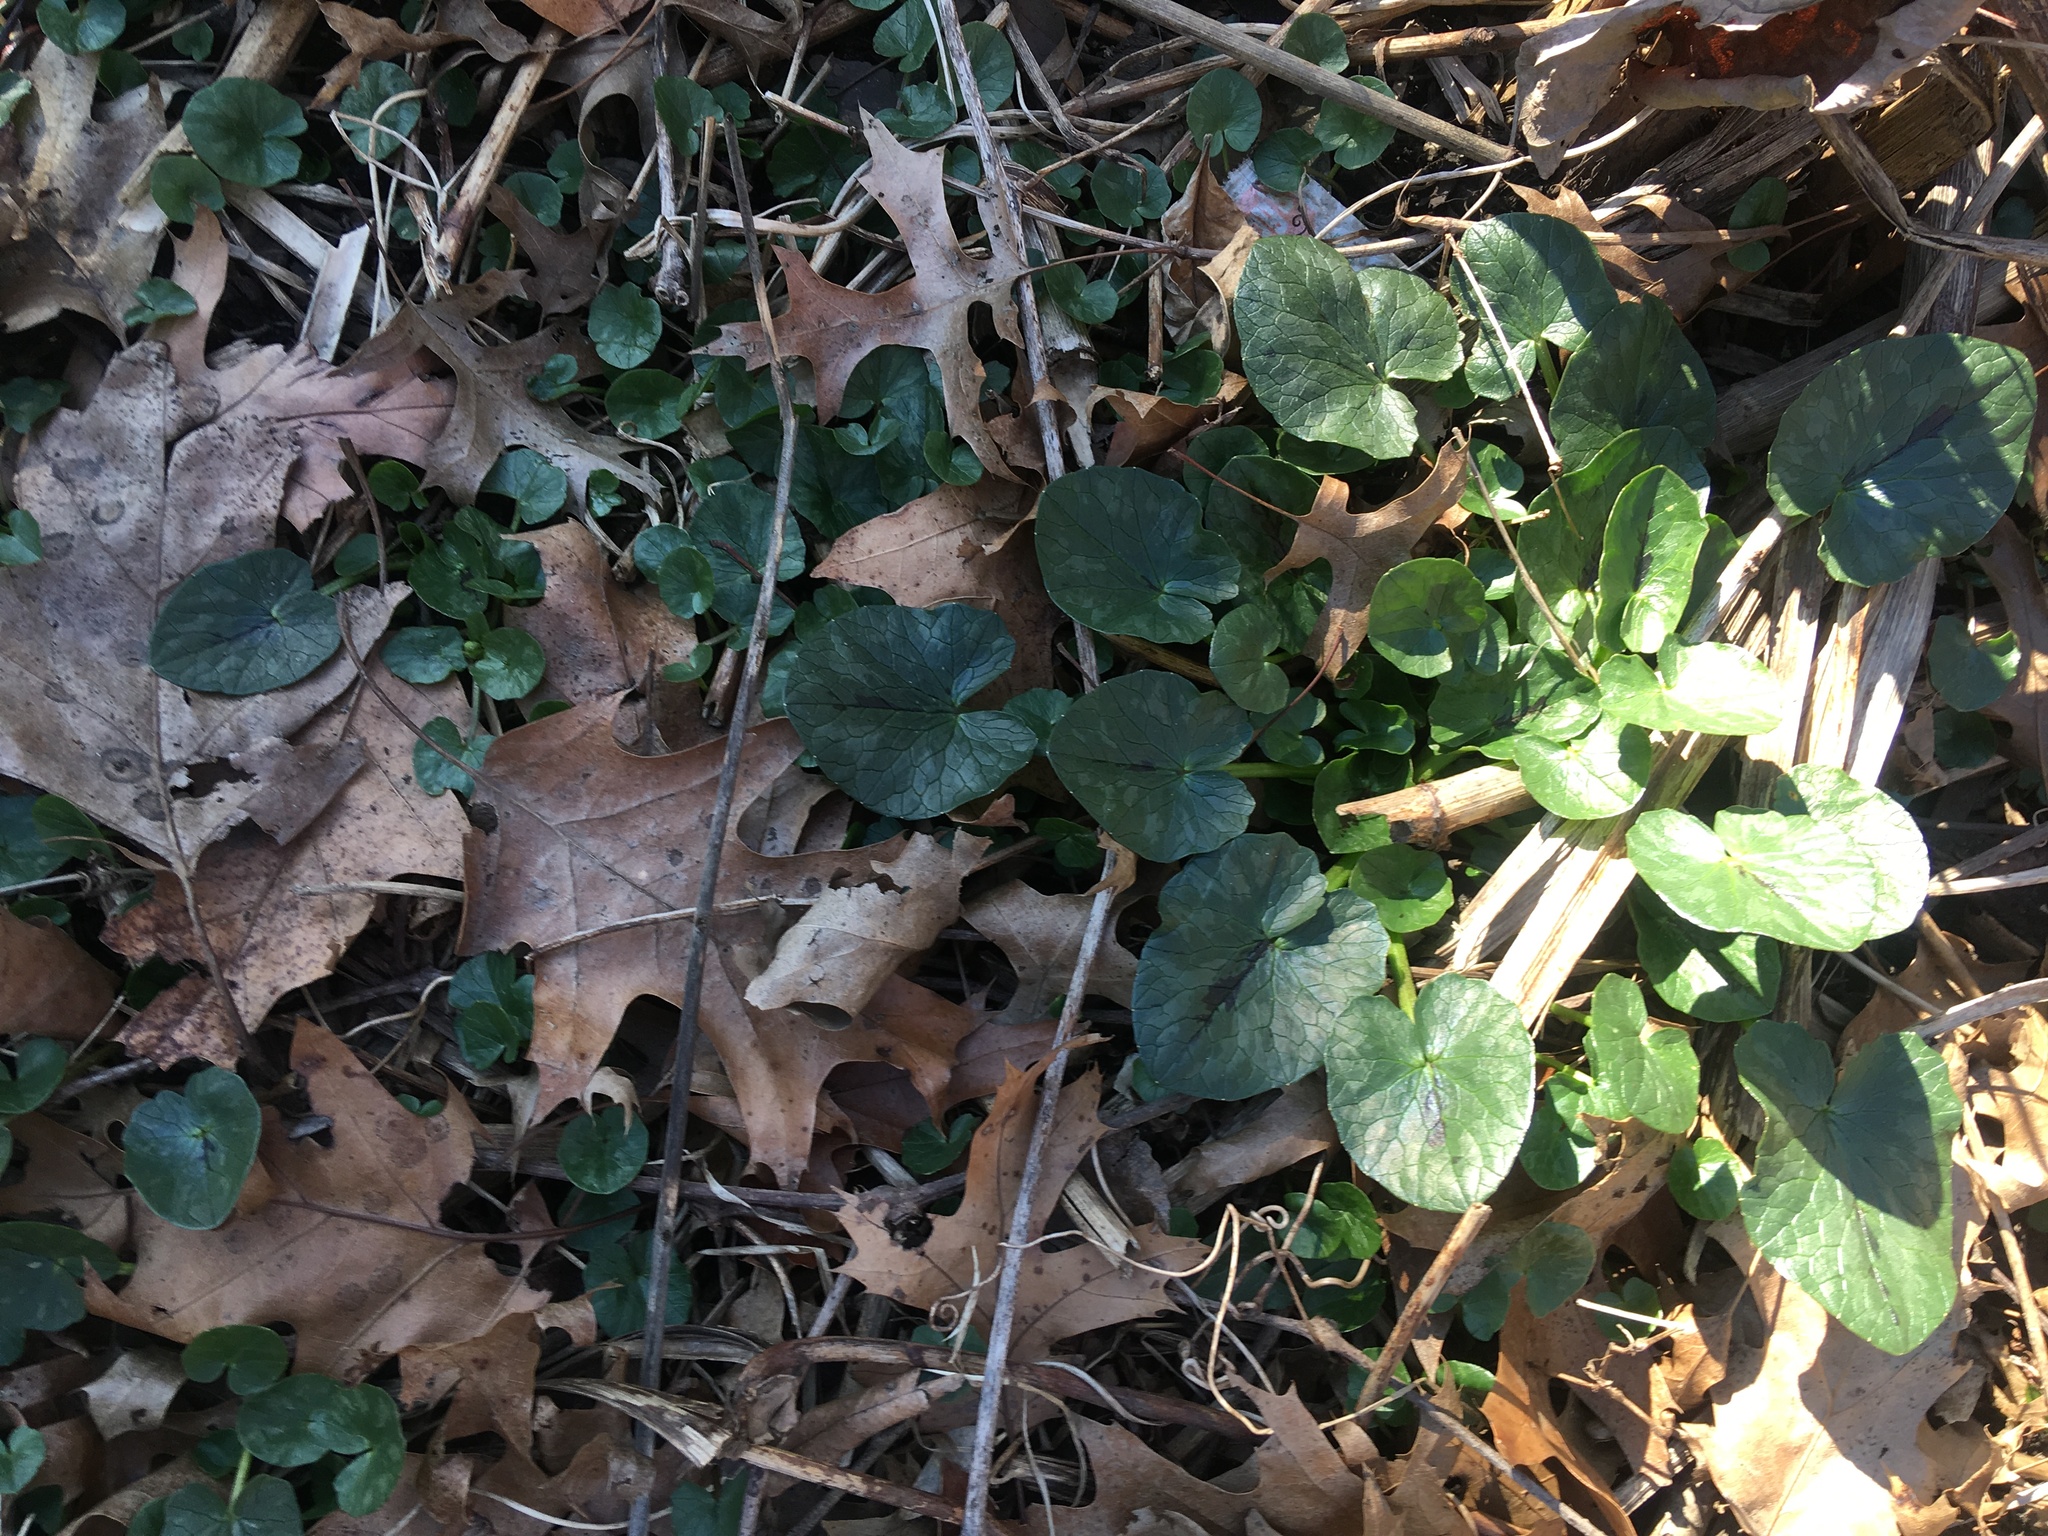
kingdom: Plantae
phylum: Tracheophyta
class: Magnoliopsida
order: Ranunculales
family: Ranunculaceae
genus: Ficaria
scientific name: Ficaria verna
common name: Lesser celandine
